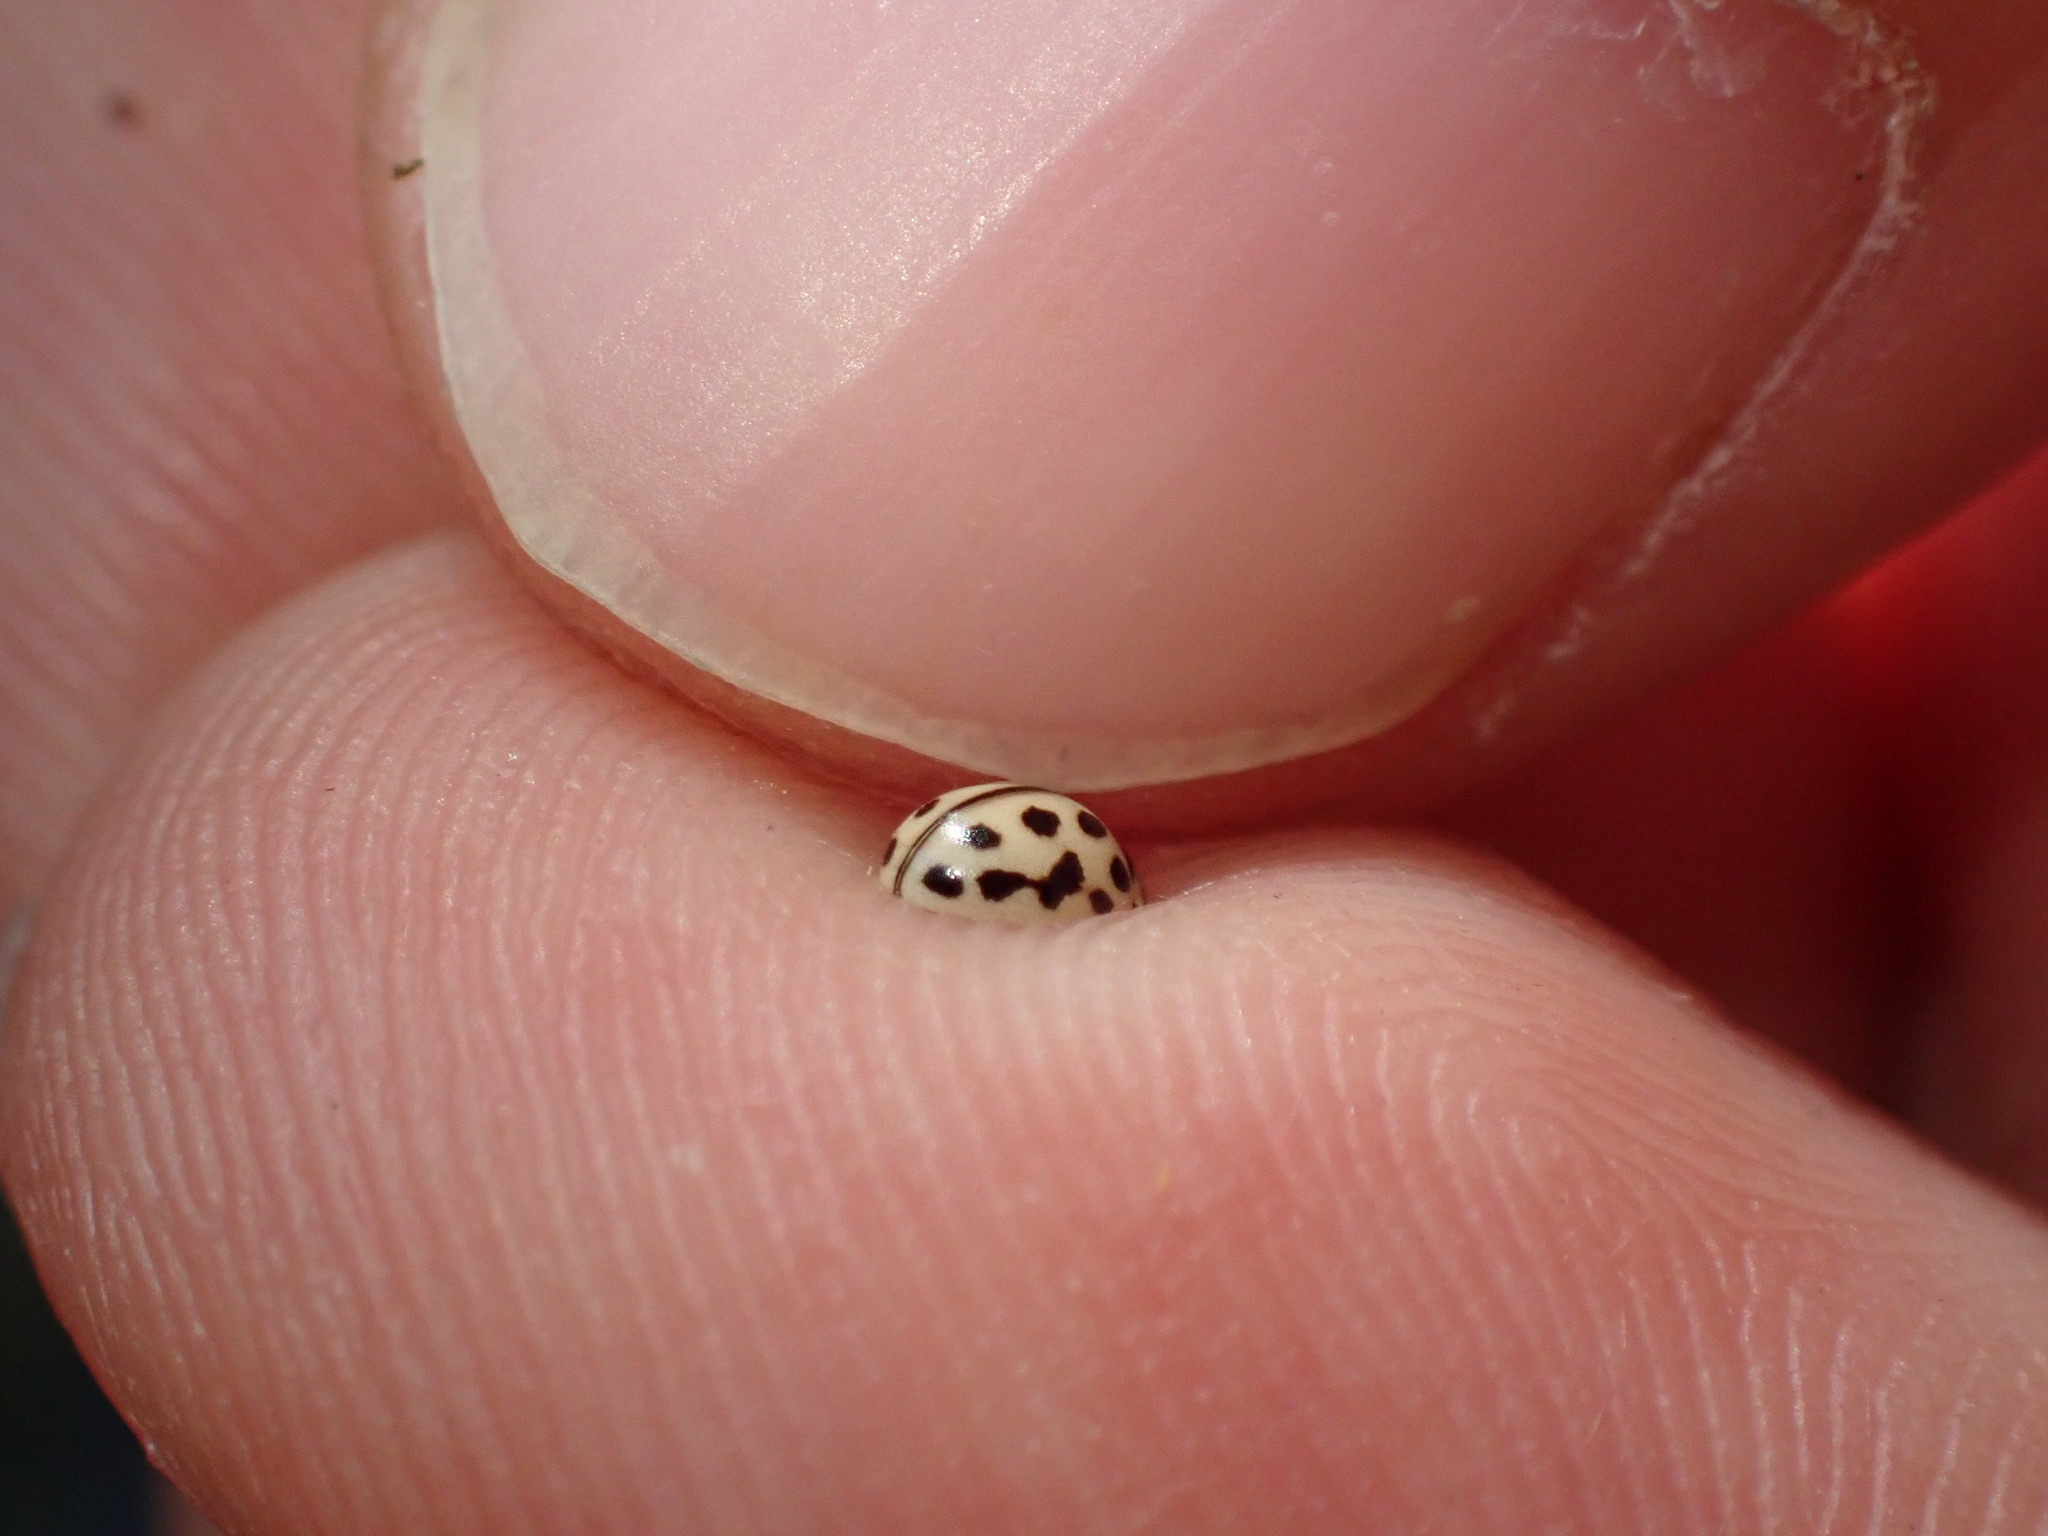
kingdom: Animalia
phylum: Arthropoda
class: Insecta
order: Coleoptera
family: Coccinellidae
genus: Tytthaspis
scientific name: Tytthaspis sedecimpunctata
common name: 16-spot ladybird
